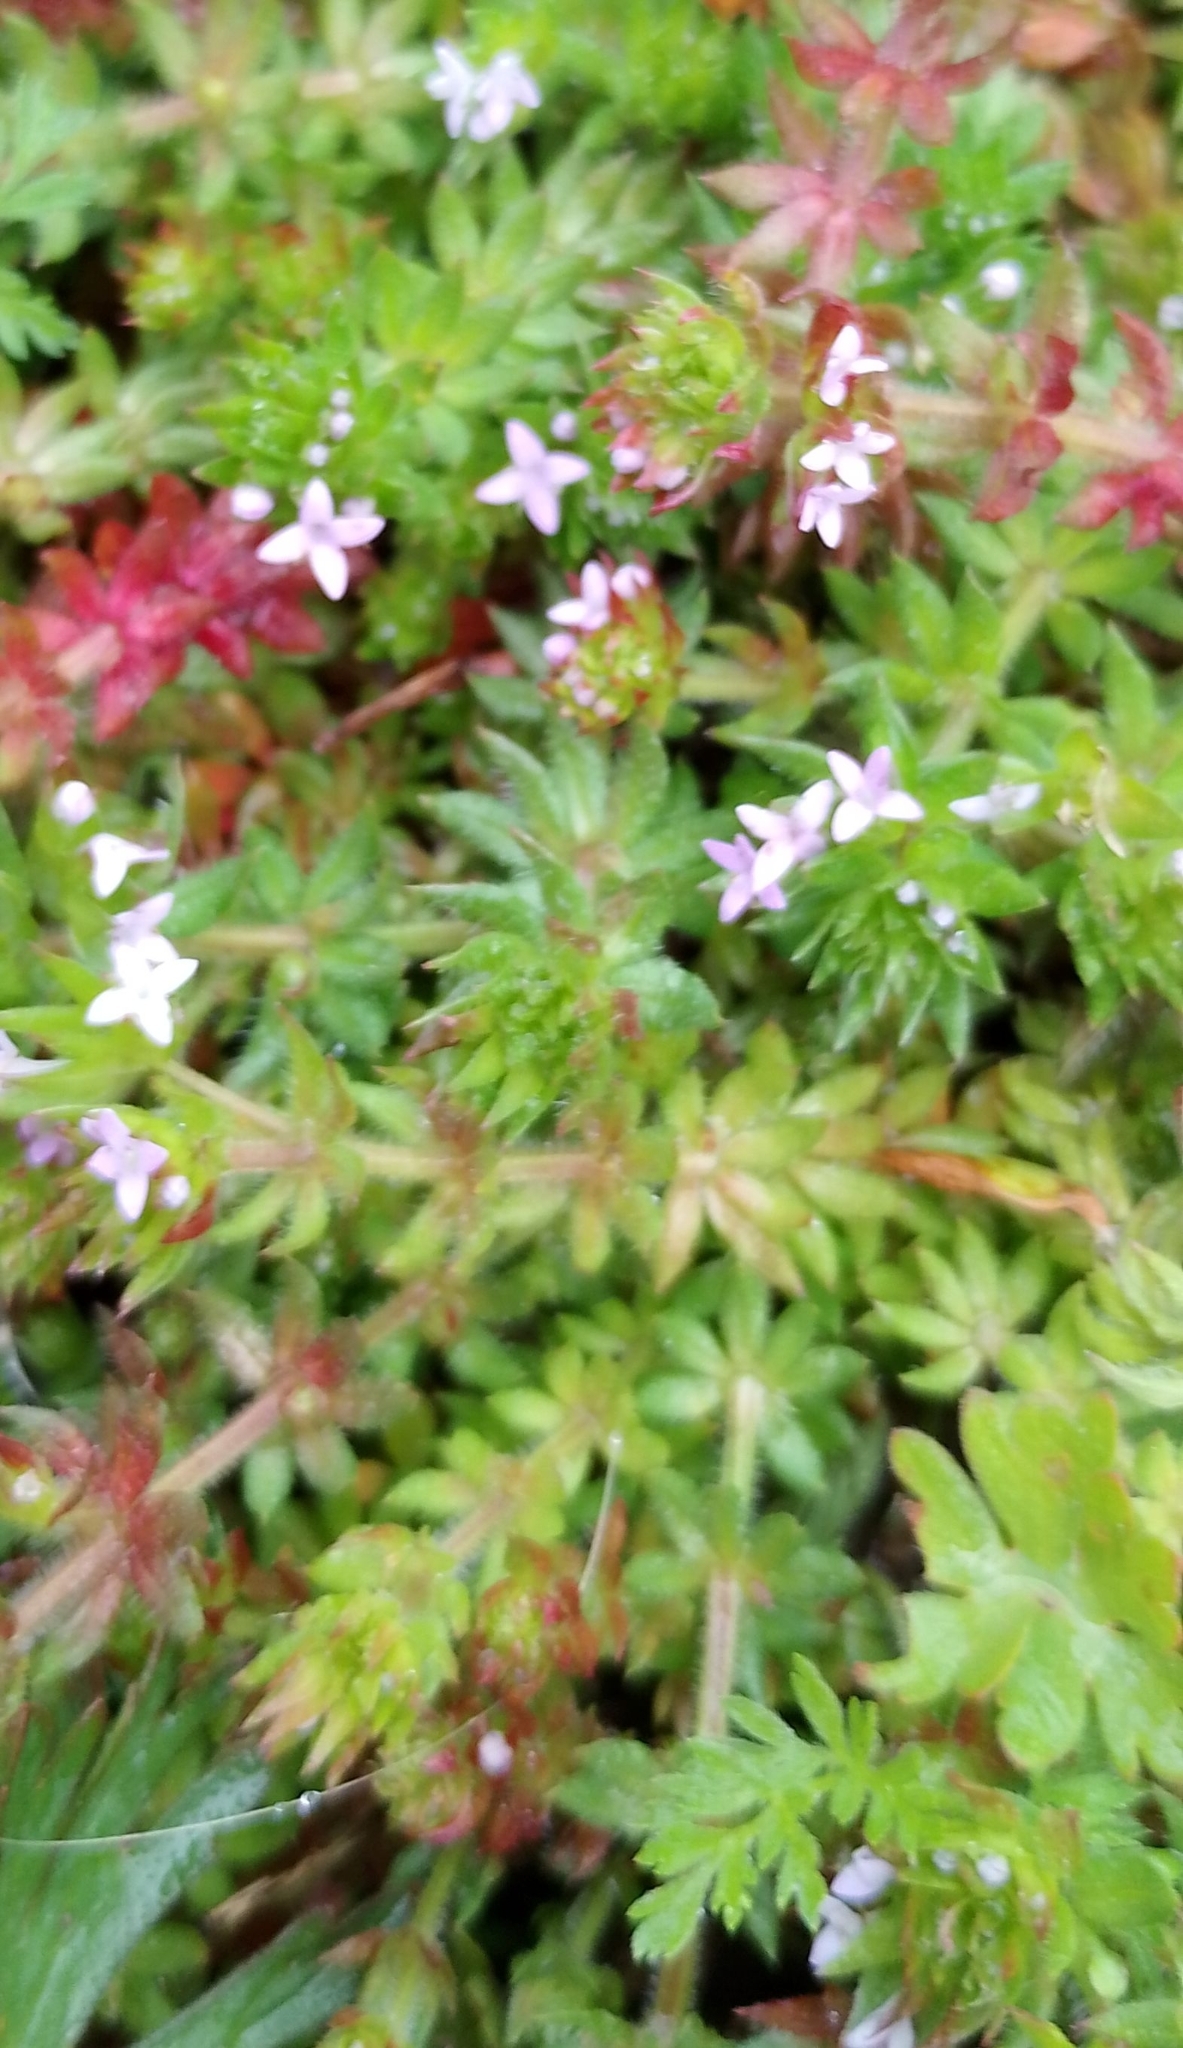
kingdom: Plantae
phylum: Tracheophyta
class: Magnoliopsida
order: Gentianales
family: Rubiaceae
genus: Sherardia
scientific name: Sherardia arvensis
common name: Field madder
